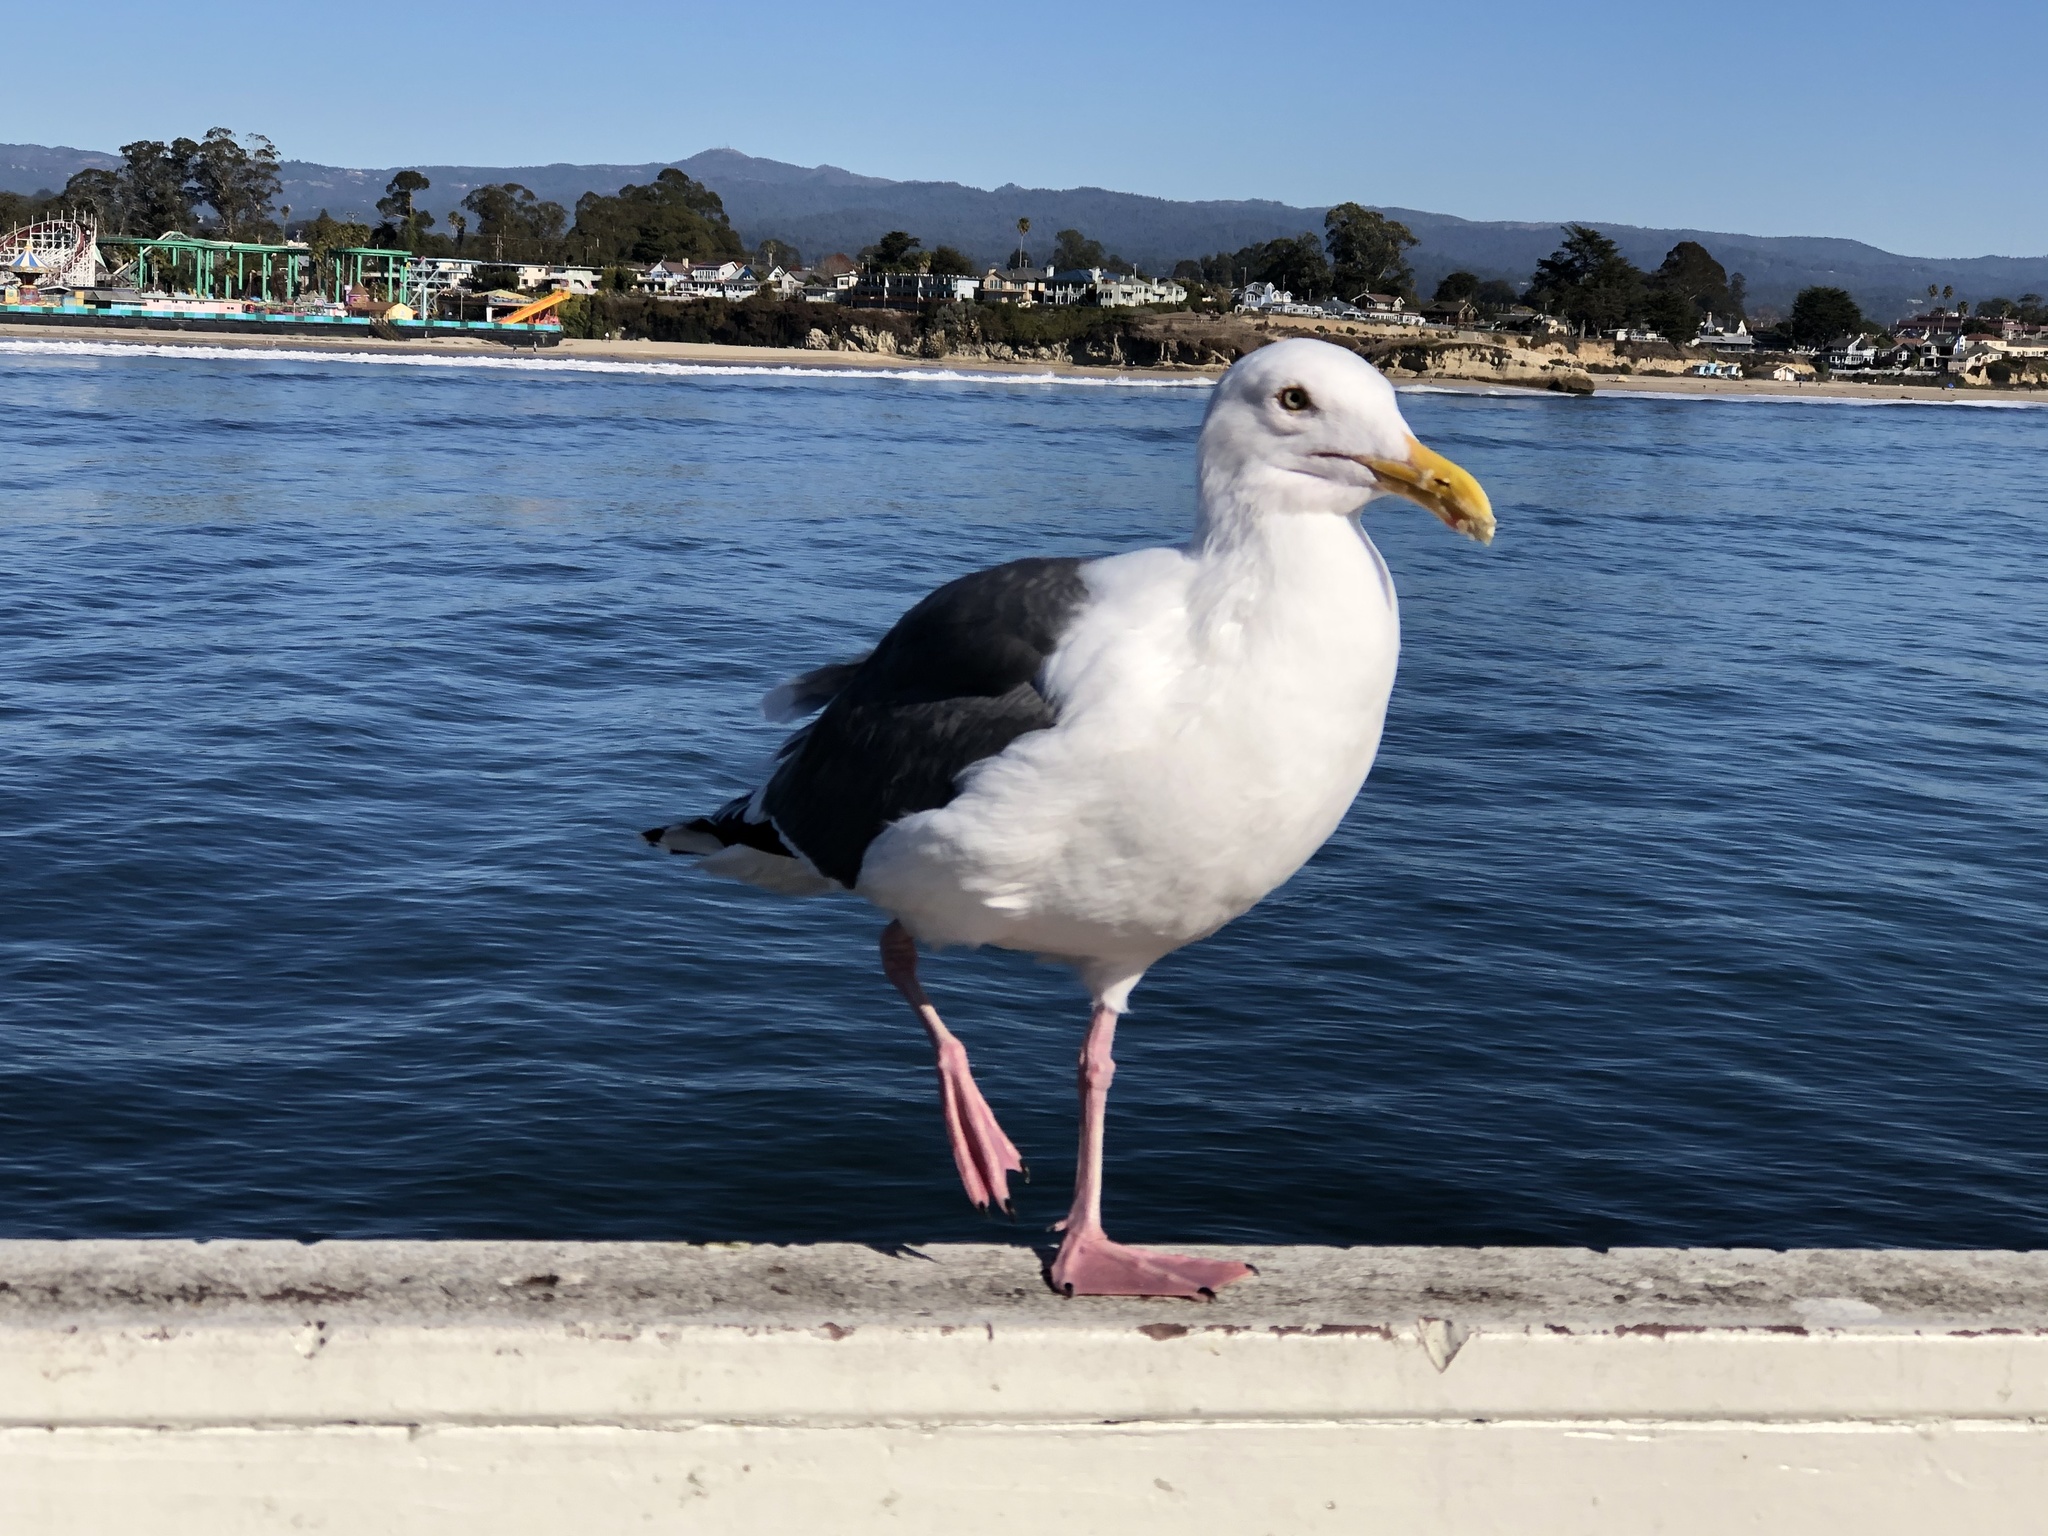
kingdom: Animalia
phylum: Chordata
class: Aves
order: Charadriiformes
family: Laridae
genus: Larus
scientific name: Larus occidentalis
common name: Western gull
